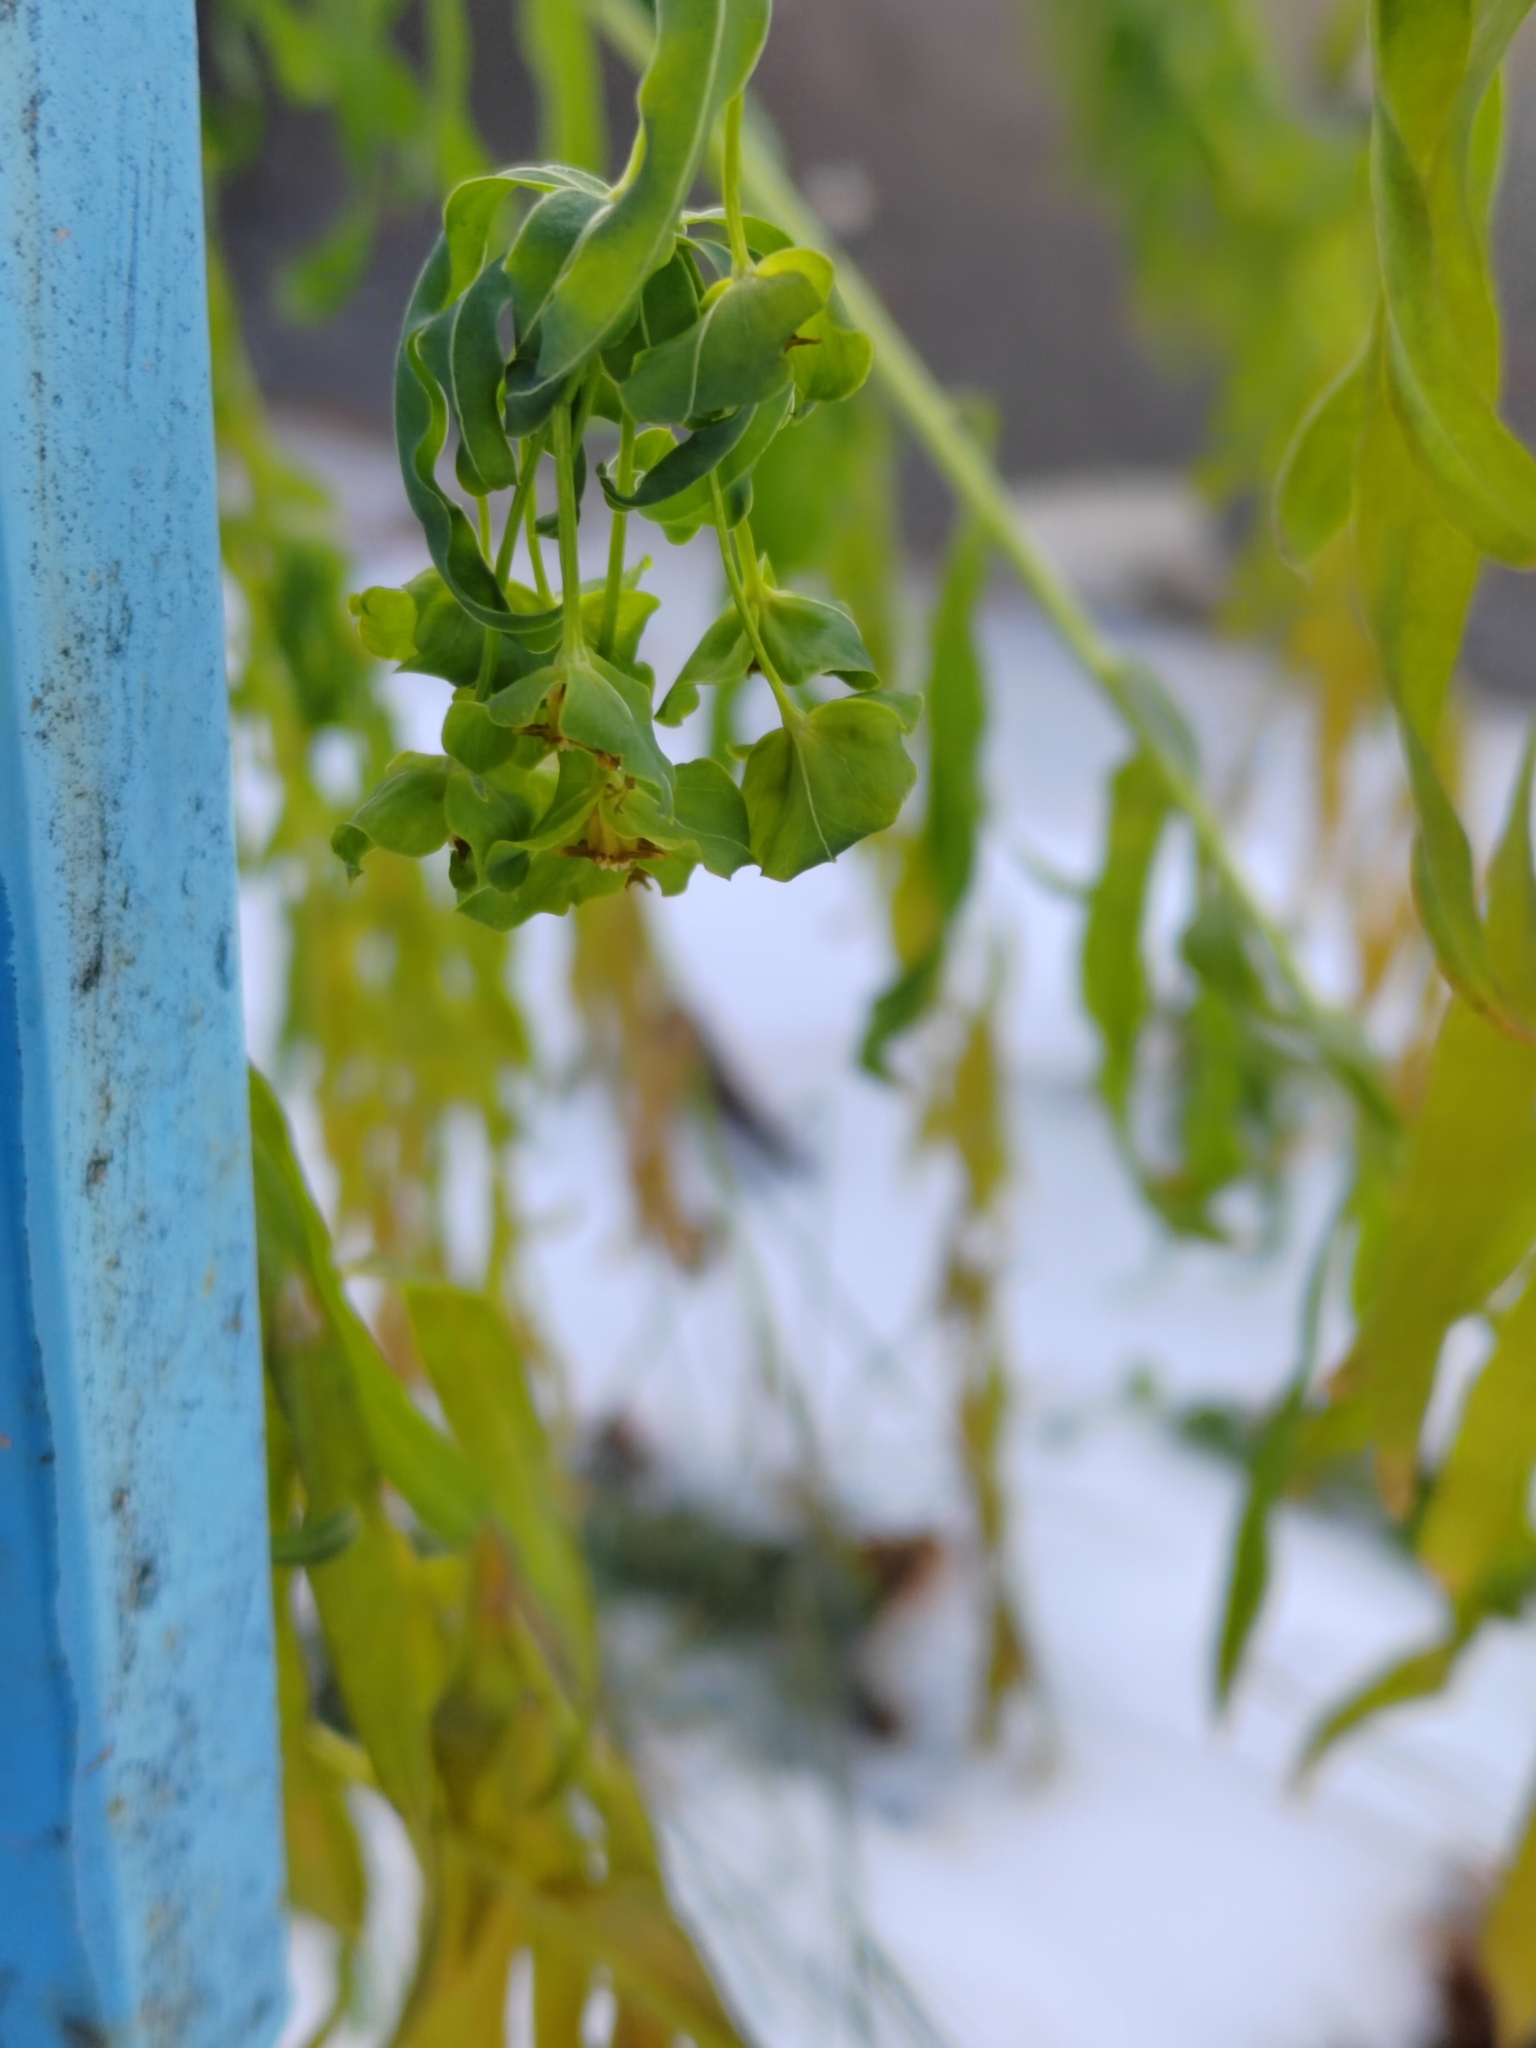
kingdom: Plantae
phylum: Tracheophyta
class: Magnoliopsida
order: Malpighiales
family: Euphorbiaceae
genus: Euphorbia
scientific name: Euphorbia virgata
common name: Leafy spurge
